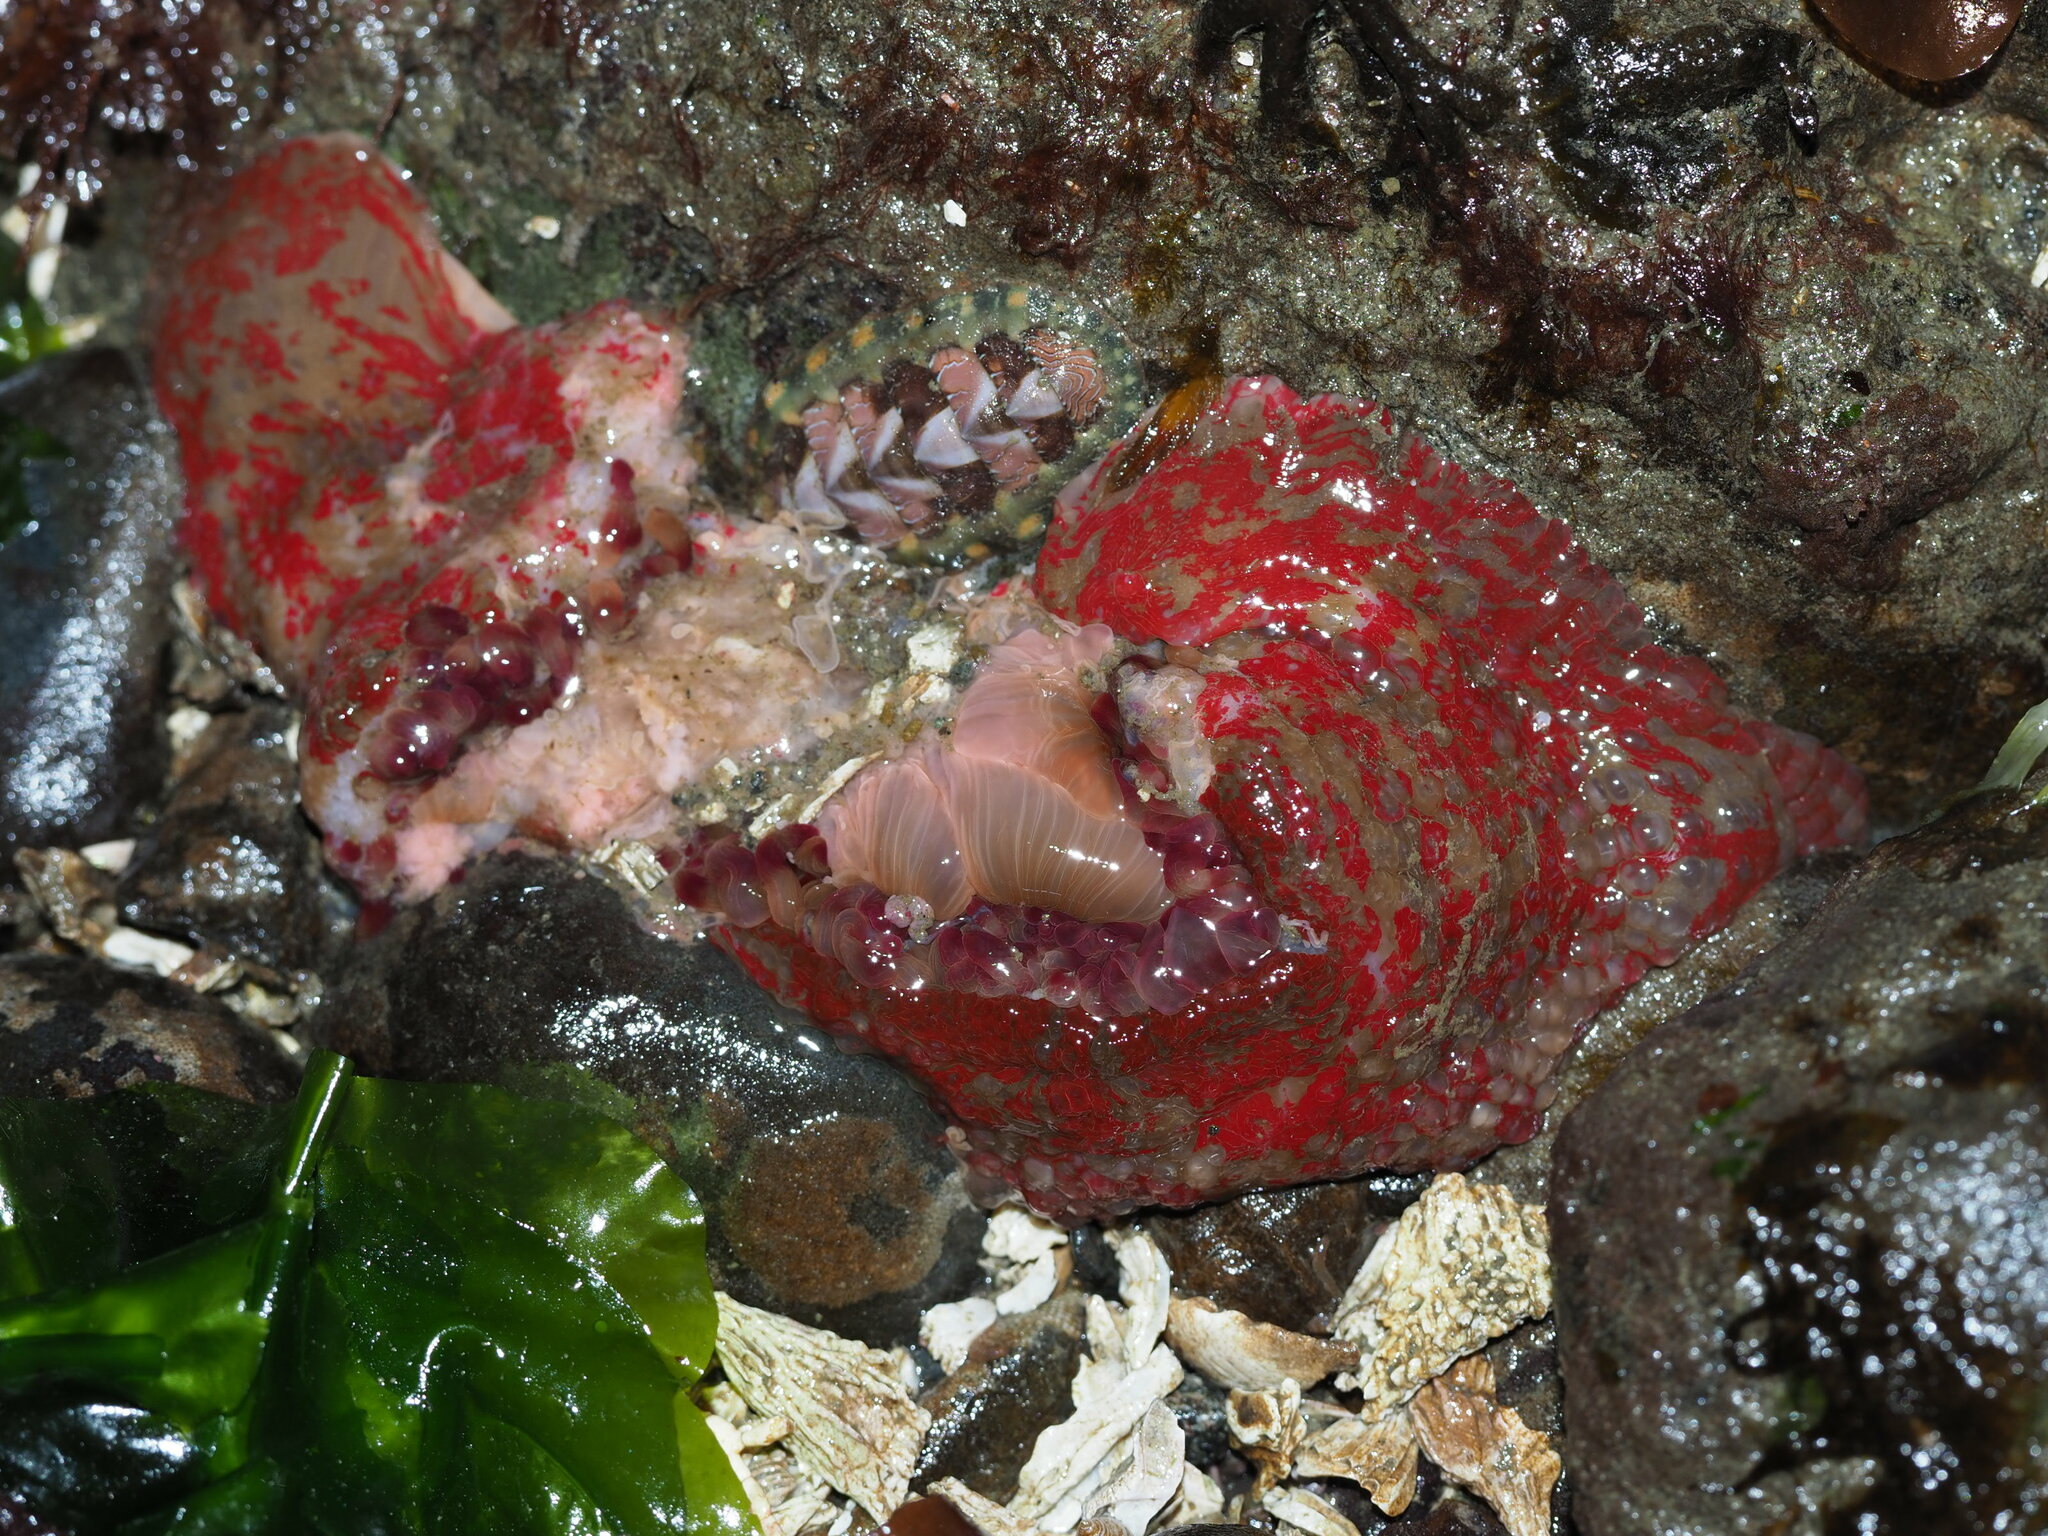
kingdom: Animalia
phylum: Cnidaria
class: Anthozoa
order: Actiniaria
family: Actiniidae
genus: Urticina
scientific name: Urticina grebelnyi
